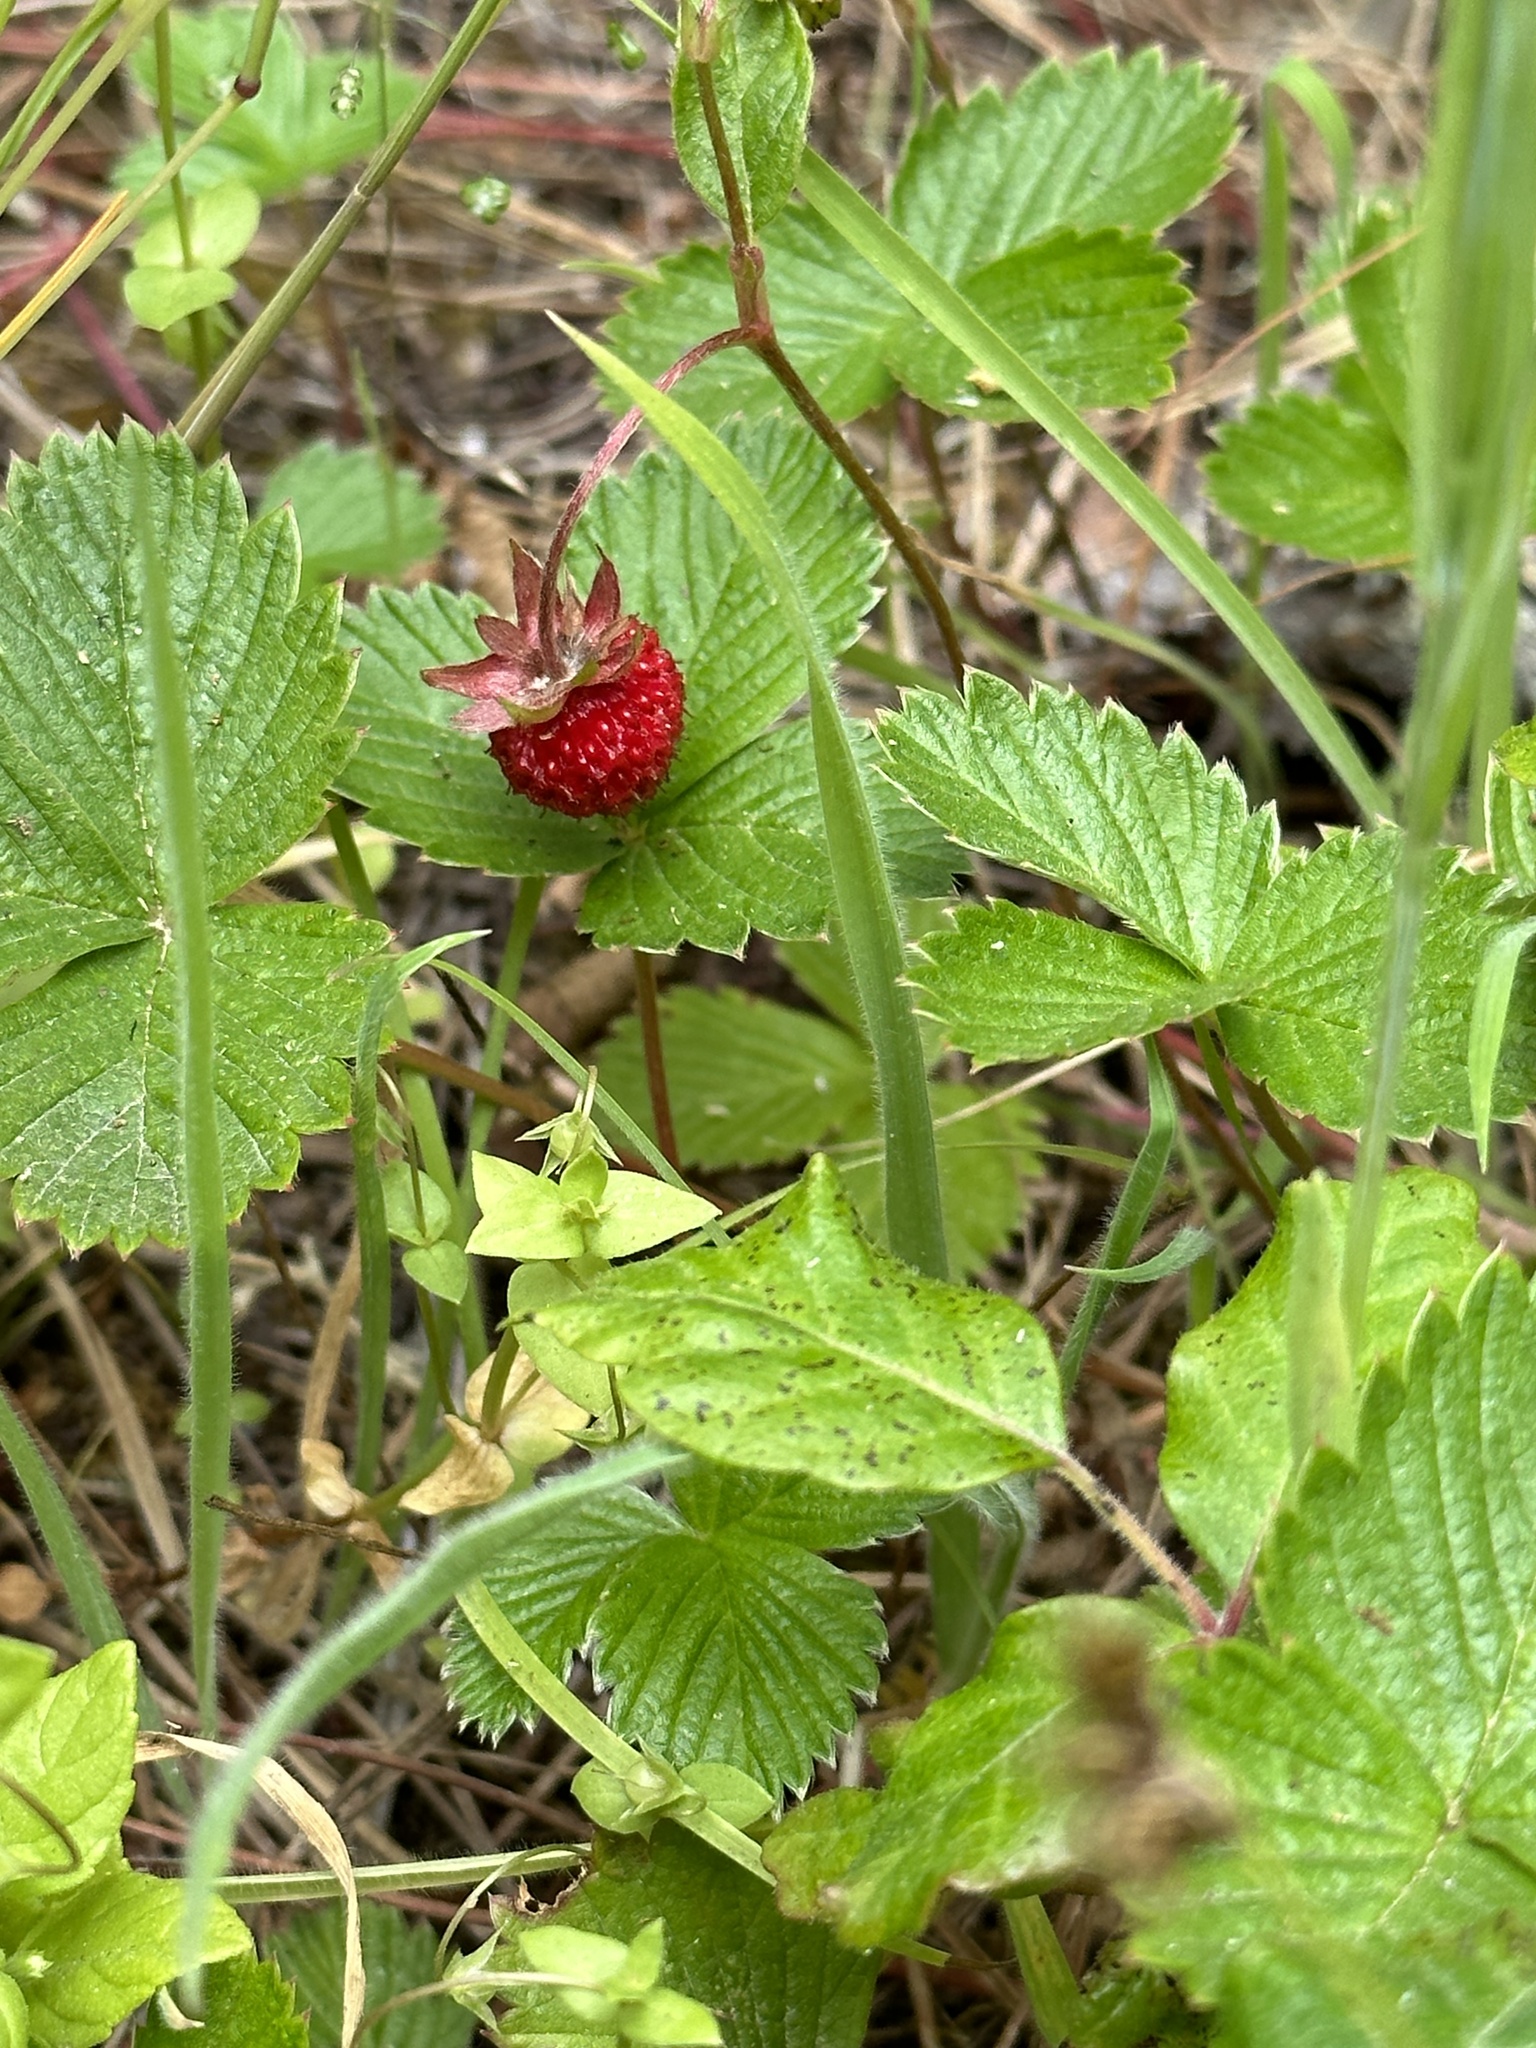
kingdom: Plantae
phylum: Tracheophyta
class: Magnoliopsida
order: Rosales
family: Rosaceae
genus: Fragaria
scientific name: Fragaria vesca
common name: Wild strawberry
